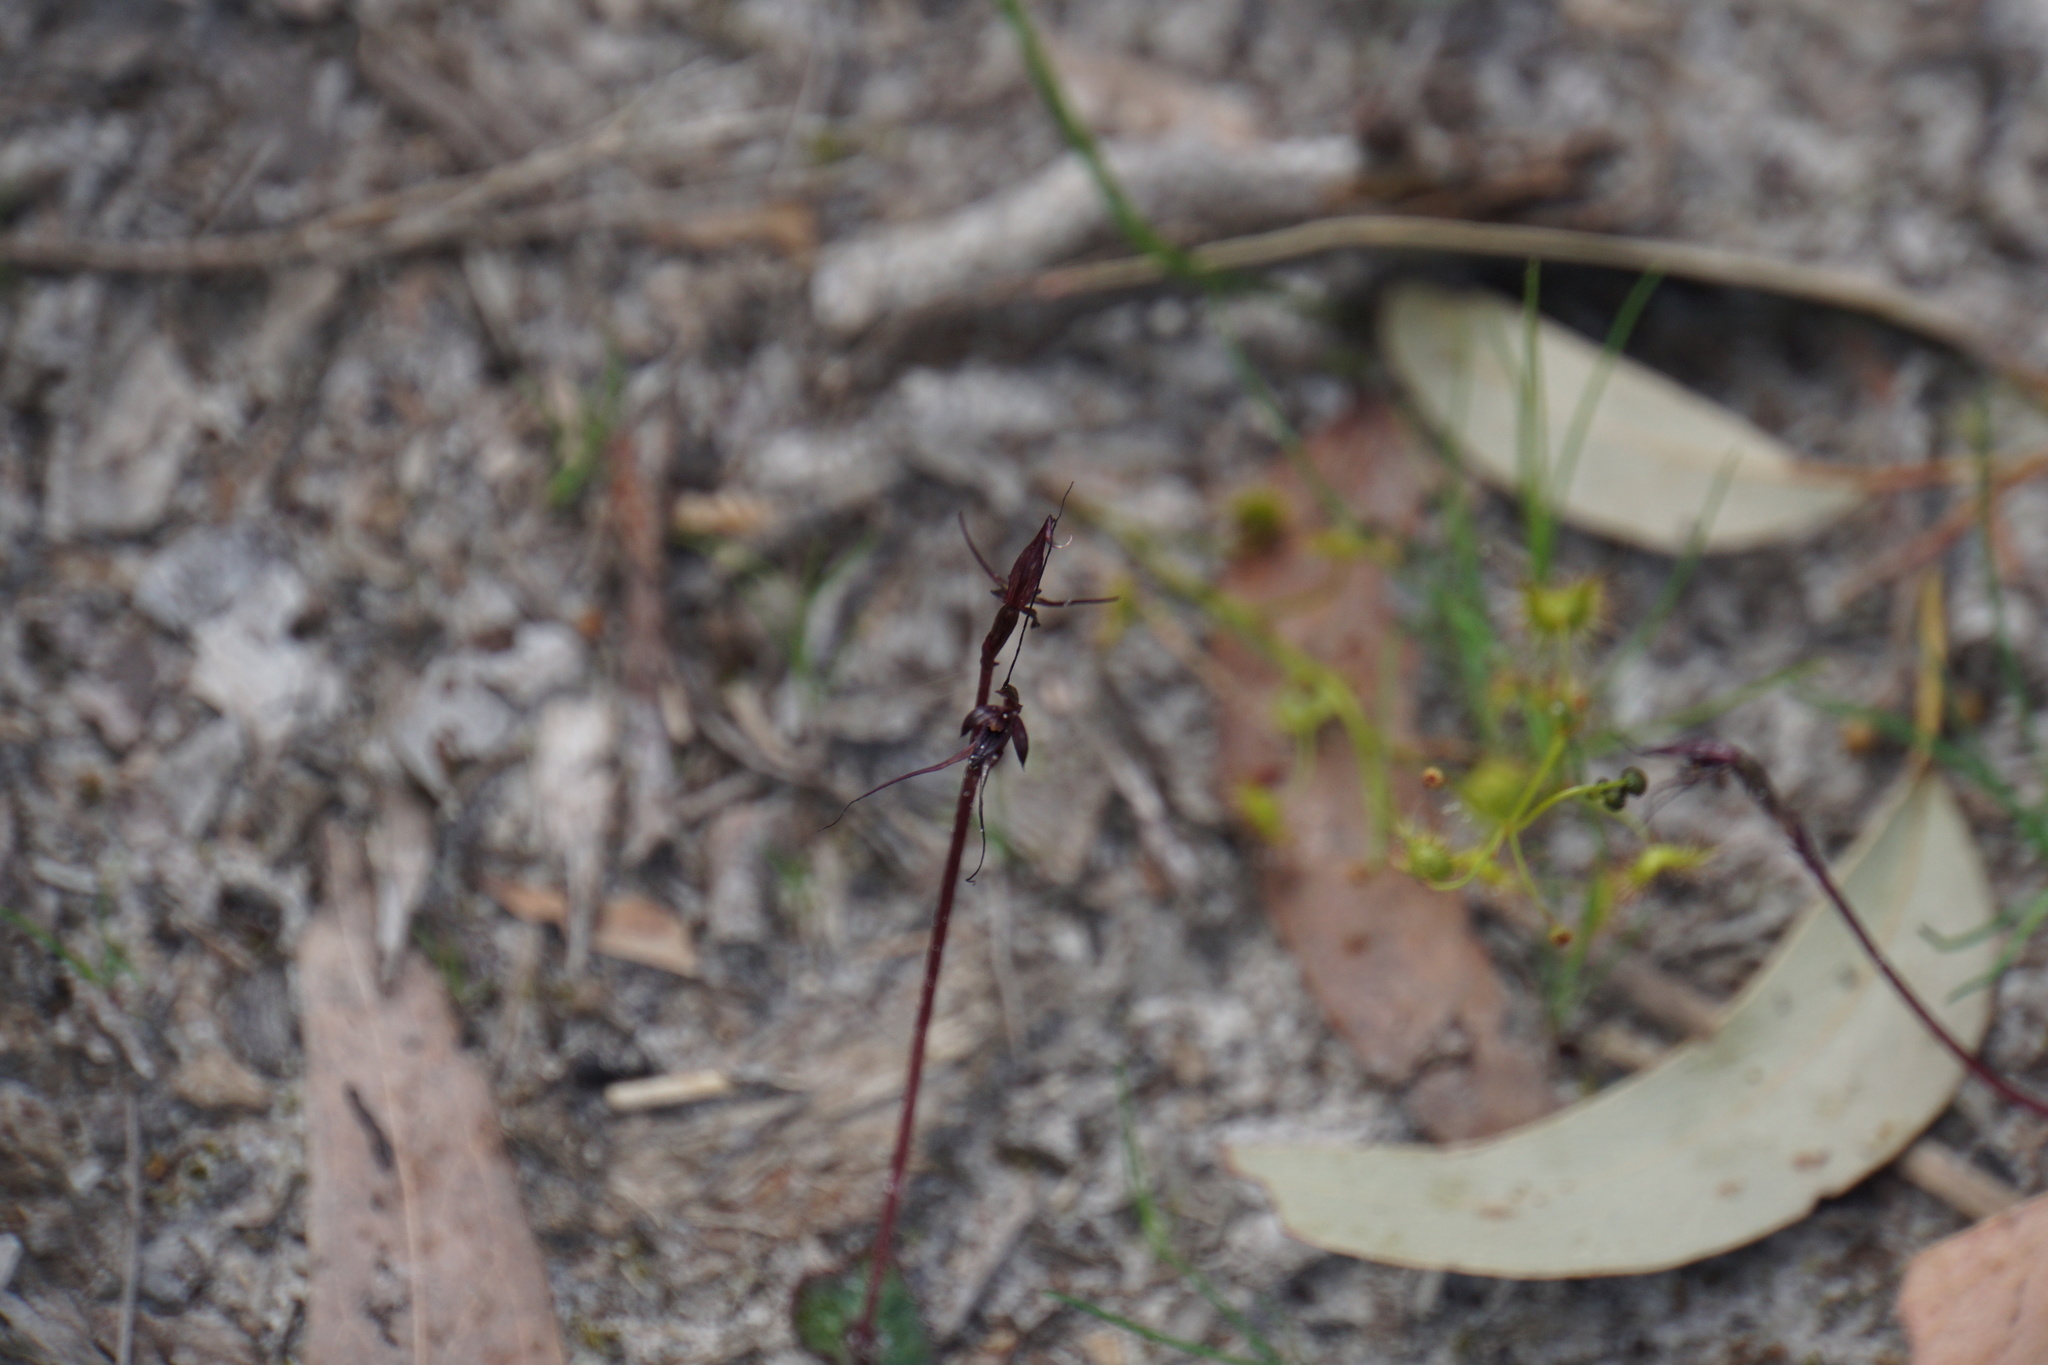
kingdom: Plantae
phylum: Tracheophyta
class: Liliopsida
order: Asparagales
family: Orchidaceae
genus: Acianthus
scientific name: Acianthus caudatus
